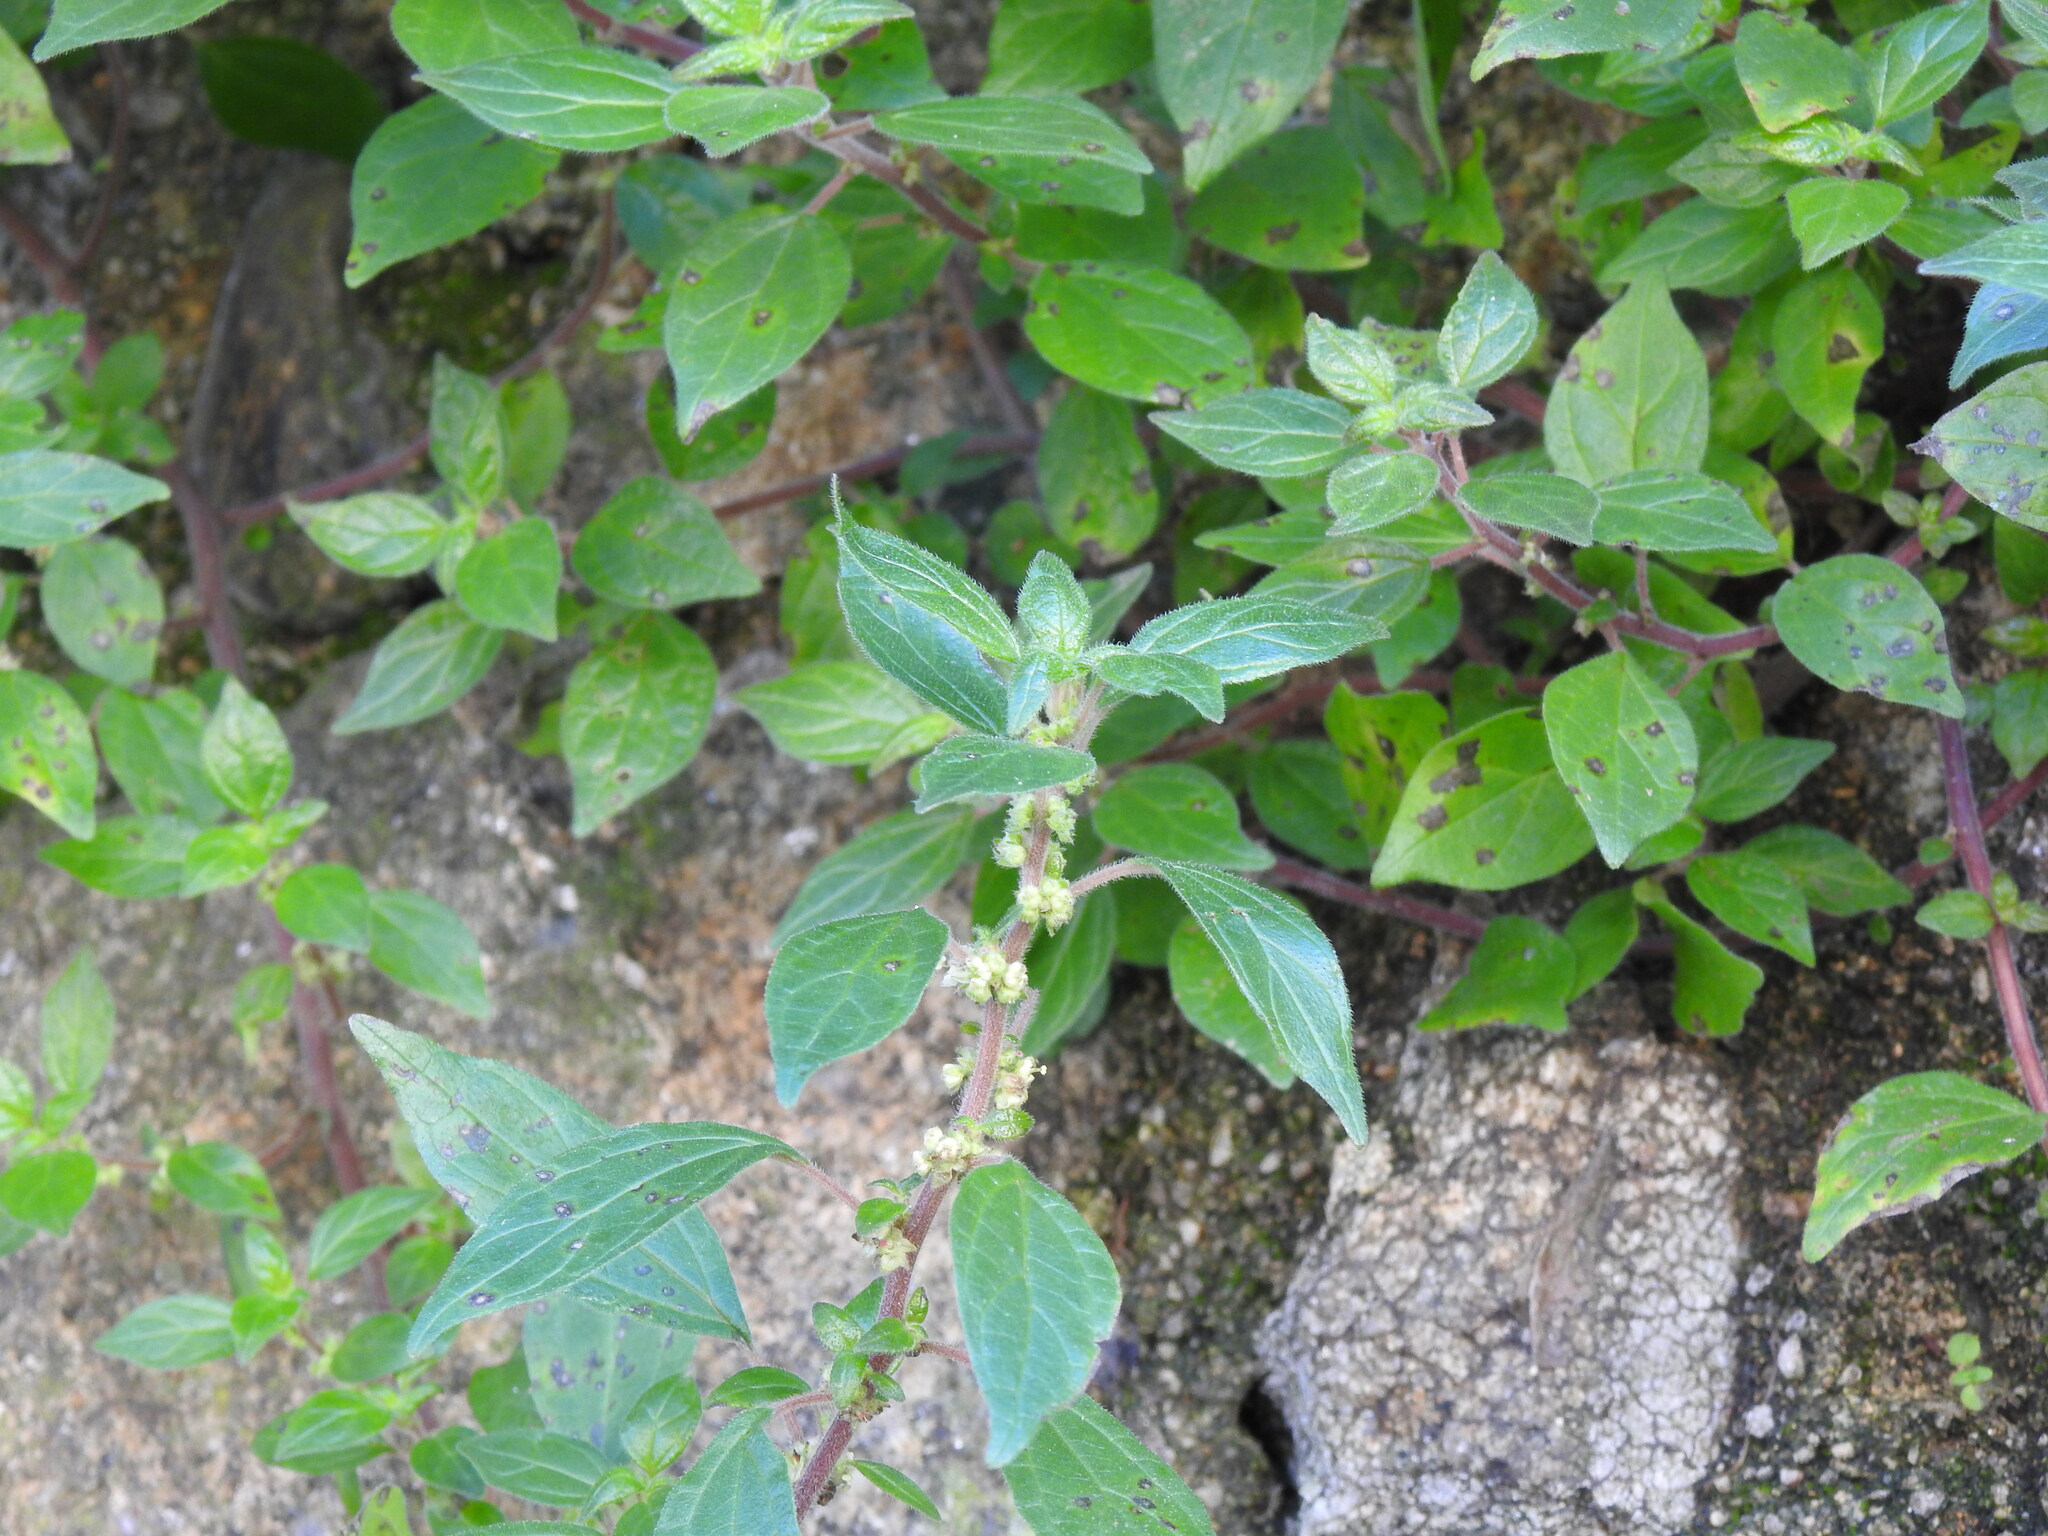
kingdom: Plantae
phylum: Tracheophyta
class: Magnoliopsida
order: Rosales
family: Urticaceae
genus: Parietaria
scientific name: Parietaria judaica
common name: Pellitory-of-the-wall
